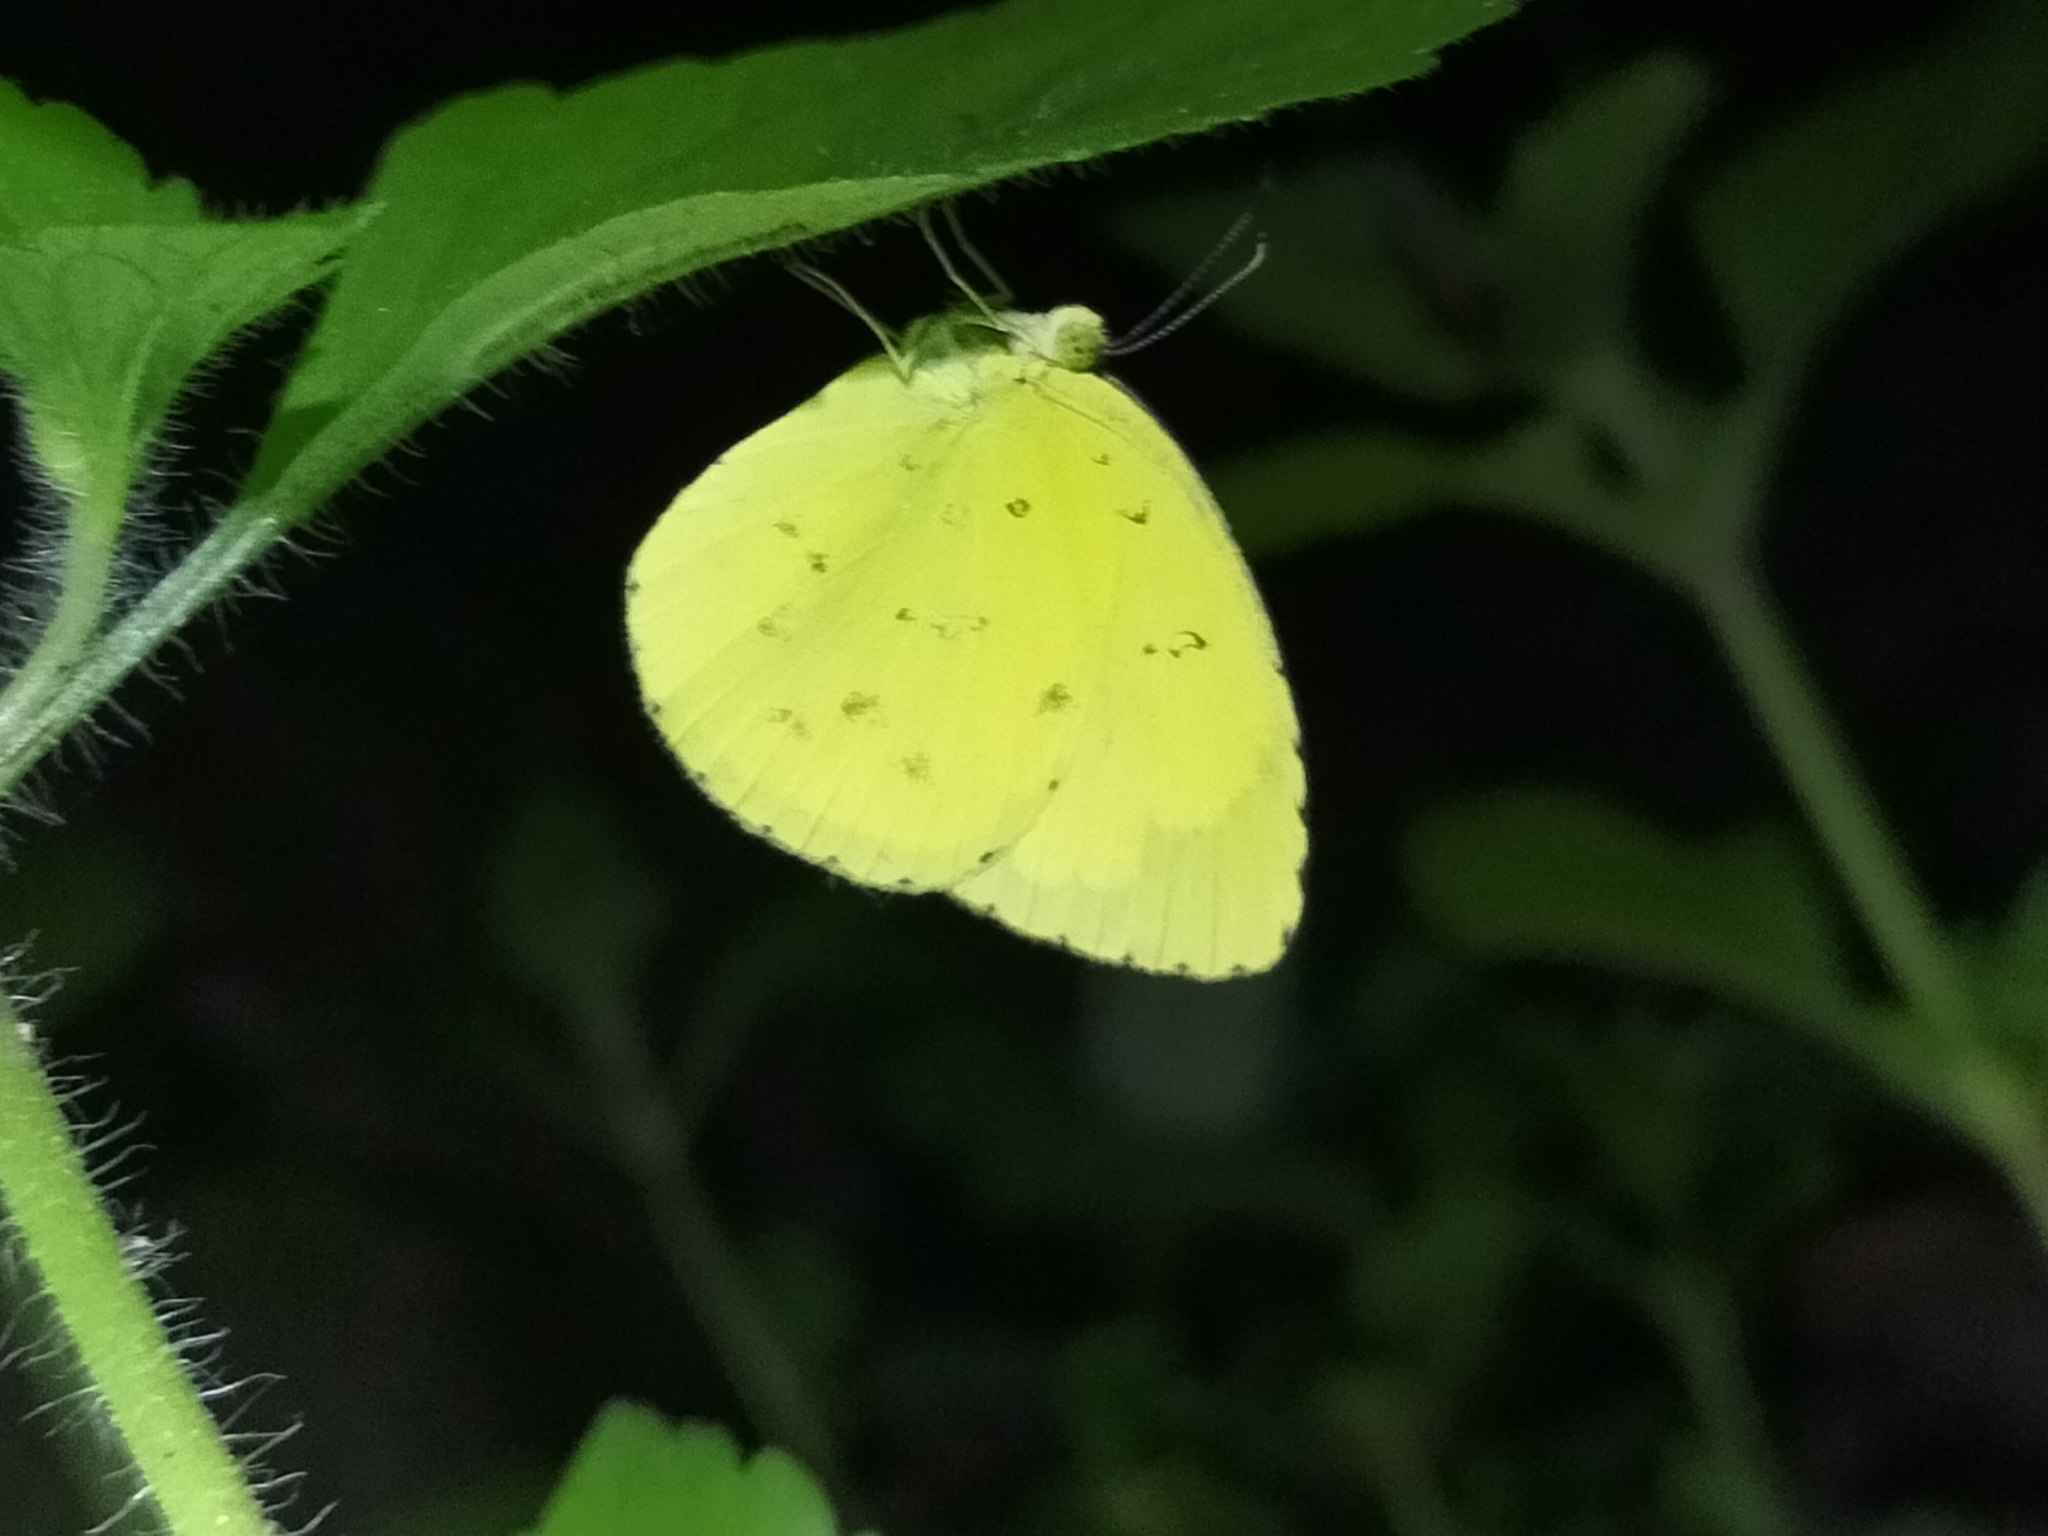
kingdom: Animalia
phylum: Arthropoda
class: Insecta
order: Lepidoptera
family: Pieridae
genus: Eurema
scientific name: Eurema hecabe
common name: Pale grass yellow
